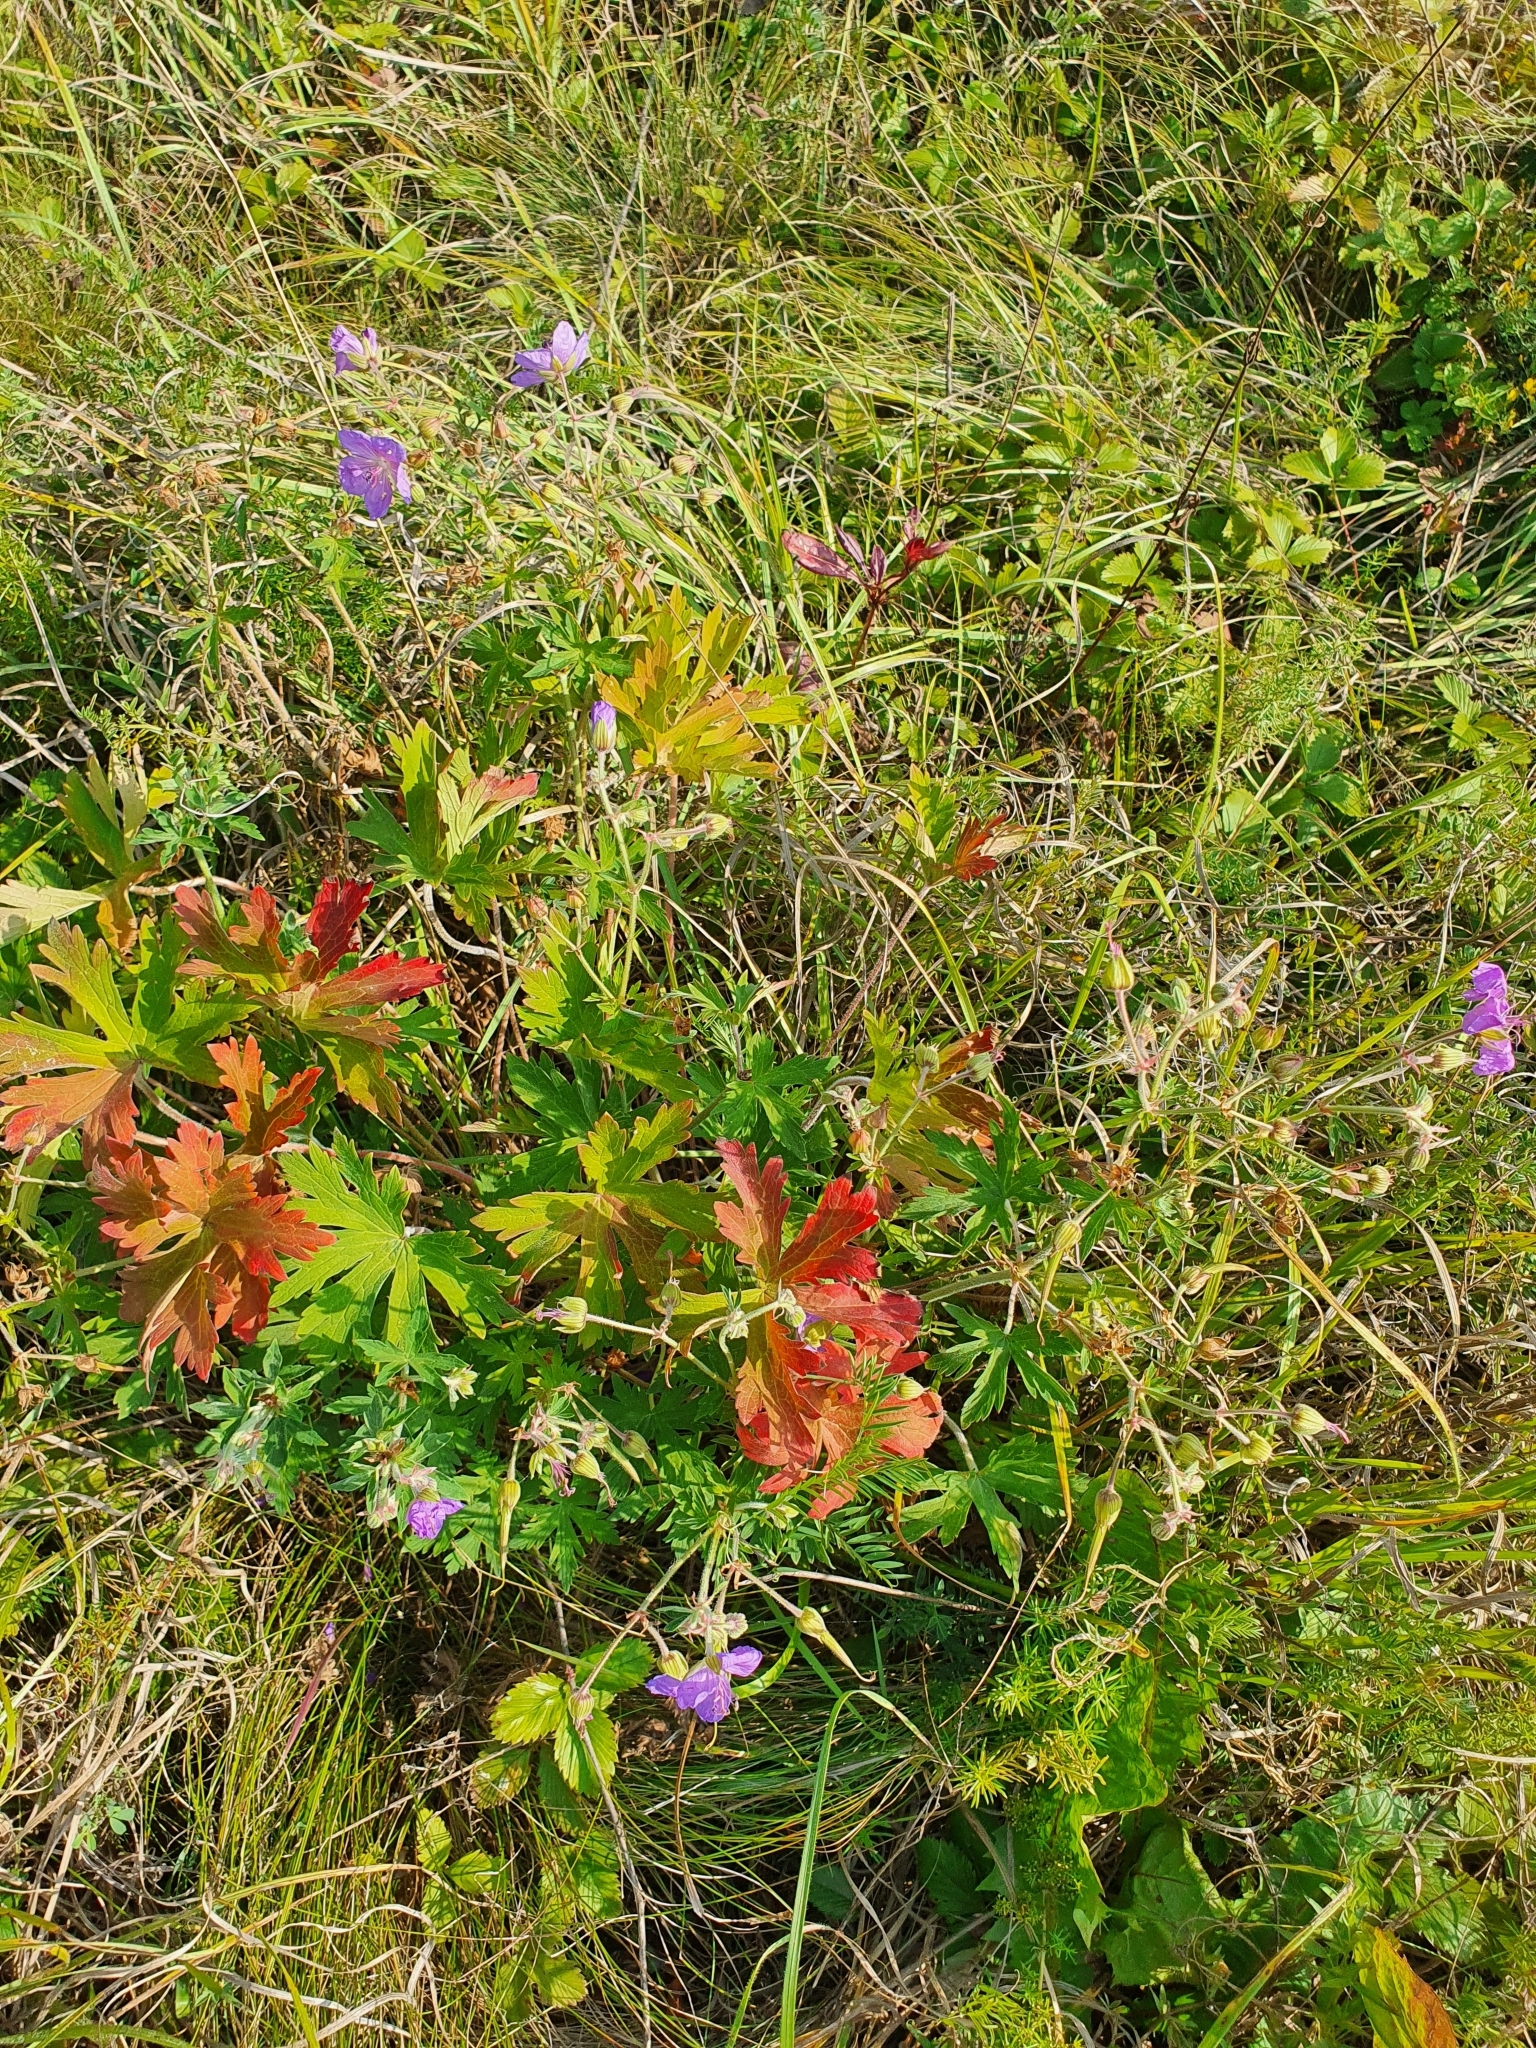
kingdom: Plantae
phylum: Tracheophyta
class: Magnoliopsida
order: Geraniales
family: Geraniaceae
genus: Geranium
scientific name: Geranium pratense
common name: Meadow crane's-bill
